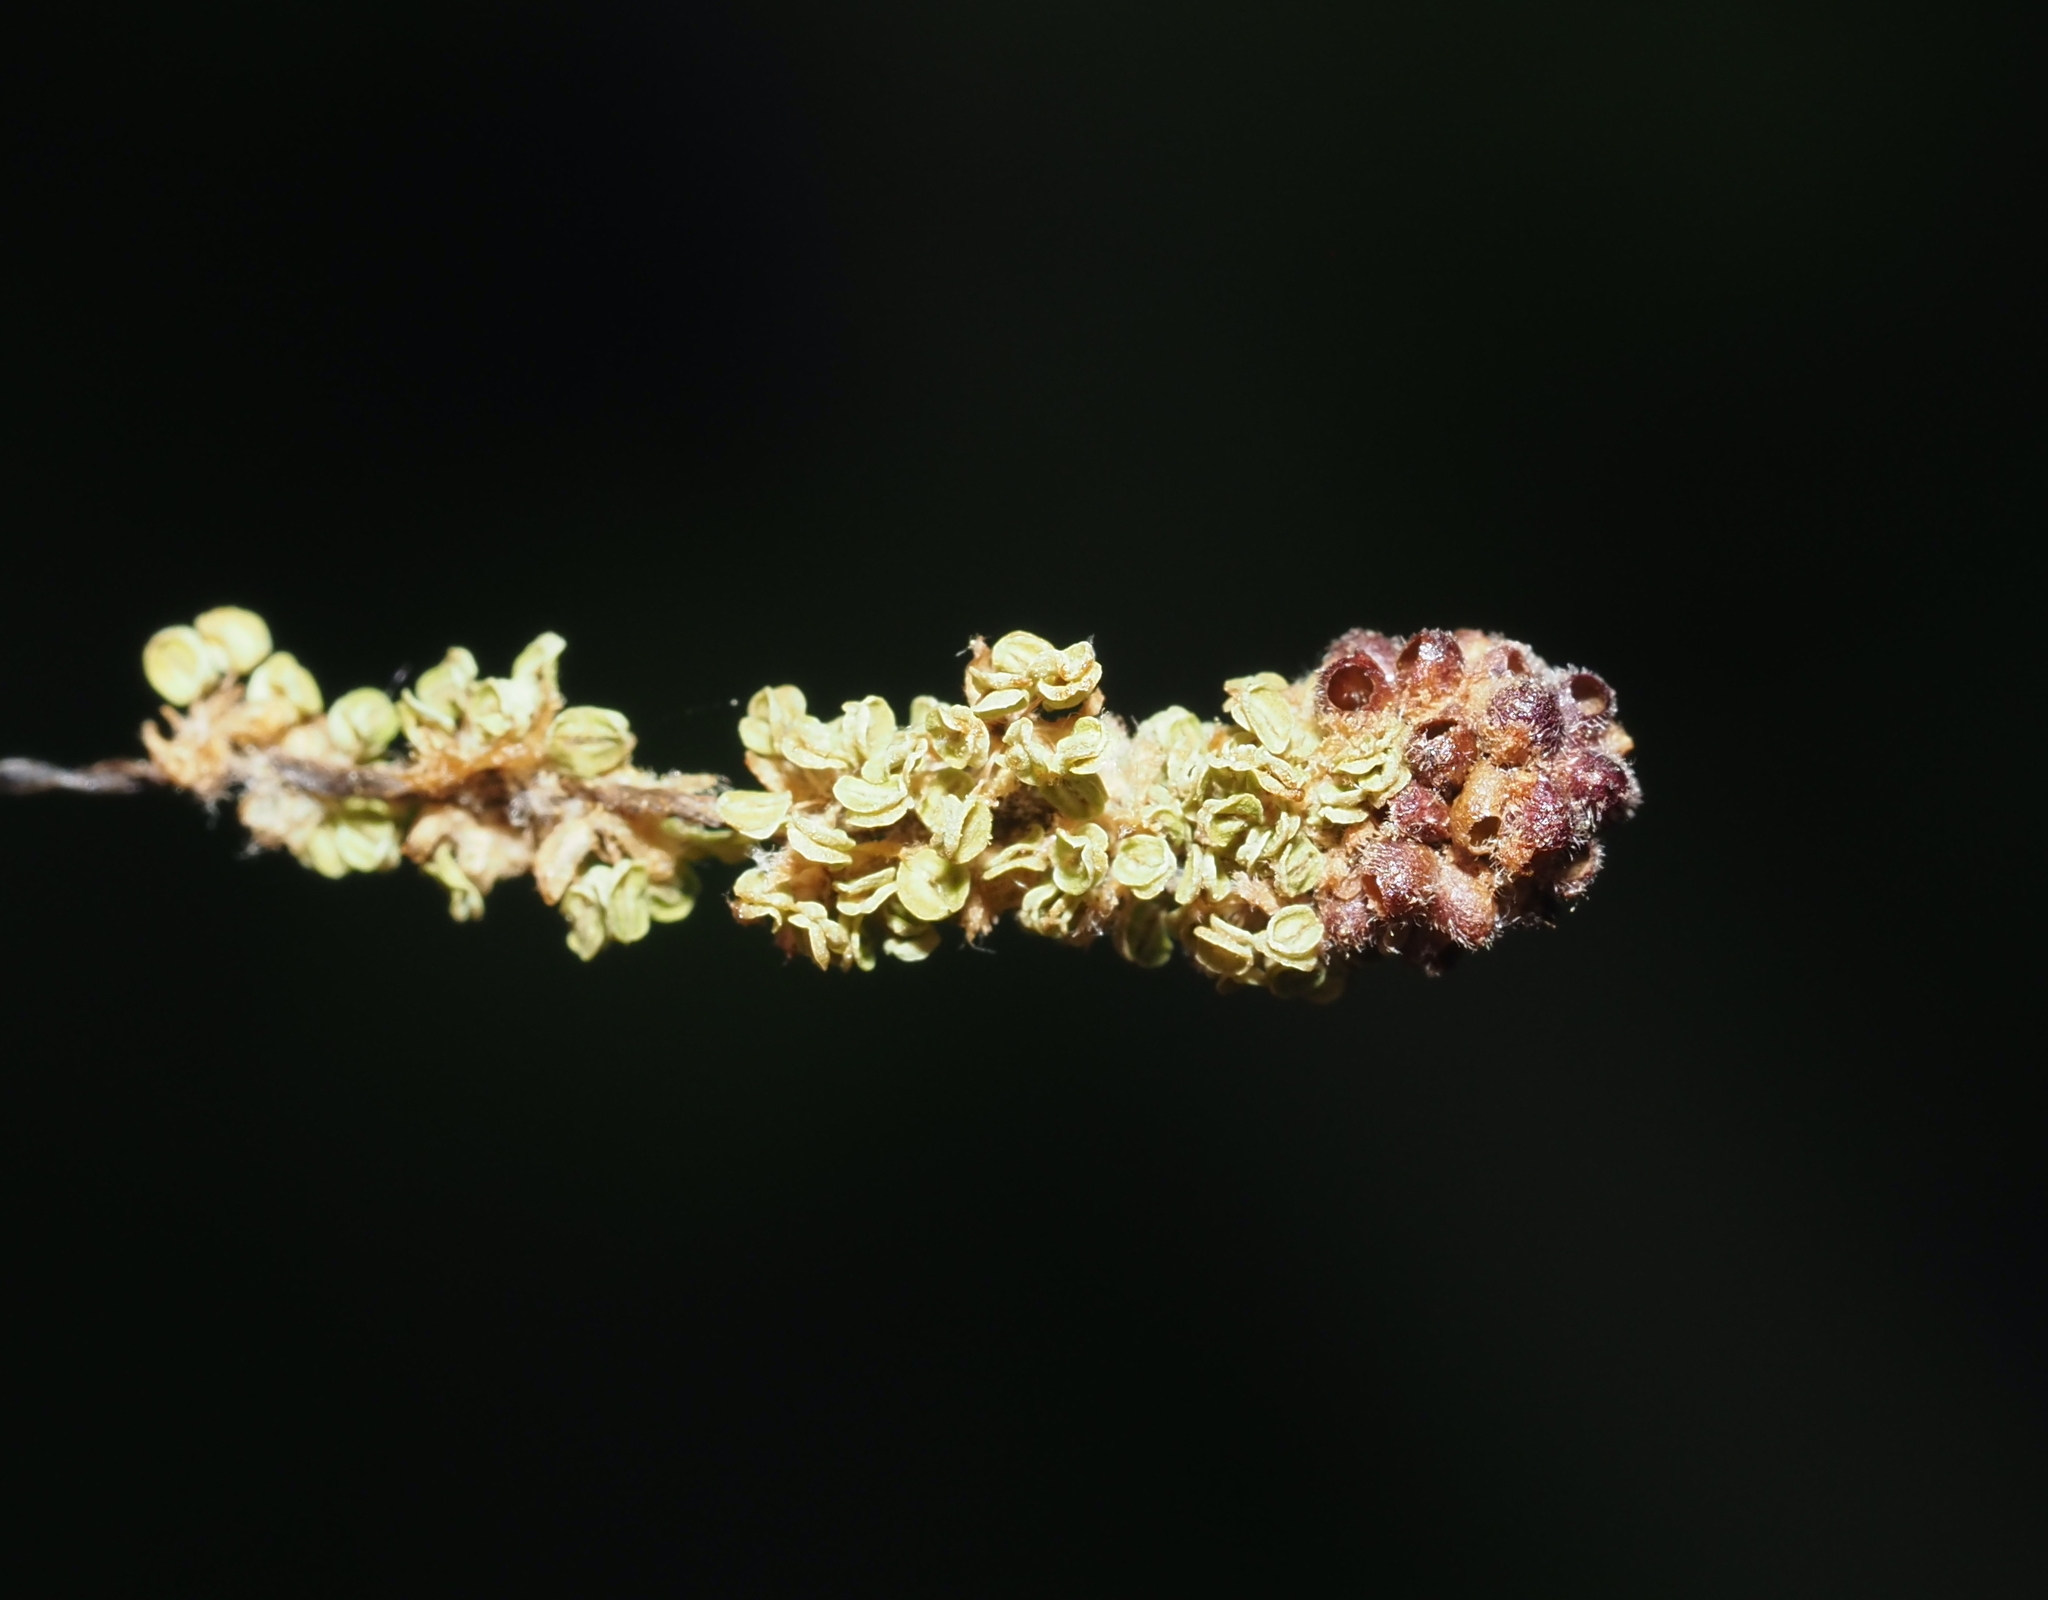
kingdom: Animalia
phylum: Arthropoda
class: Insecta
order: Hymenoptera
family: Cynipidae
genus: Callirhytis
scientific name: Callirhytis
